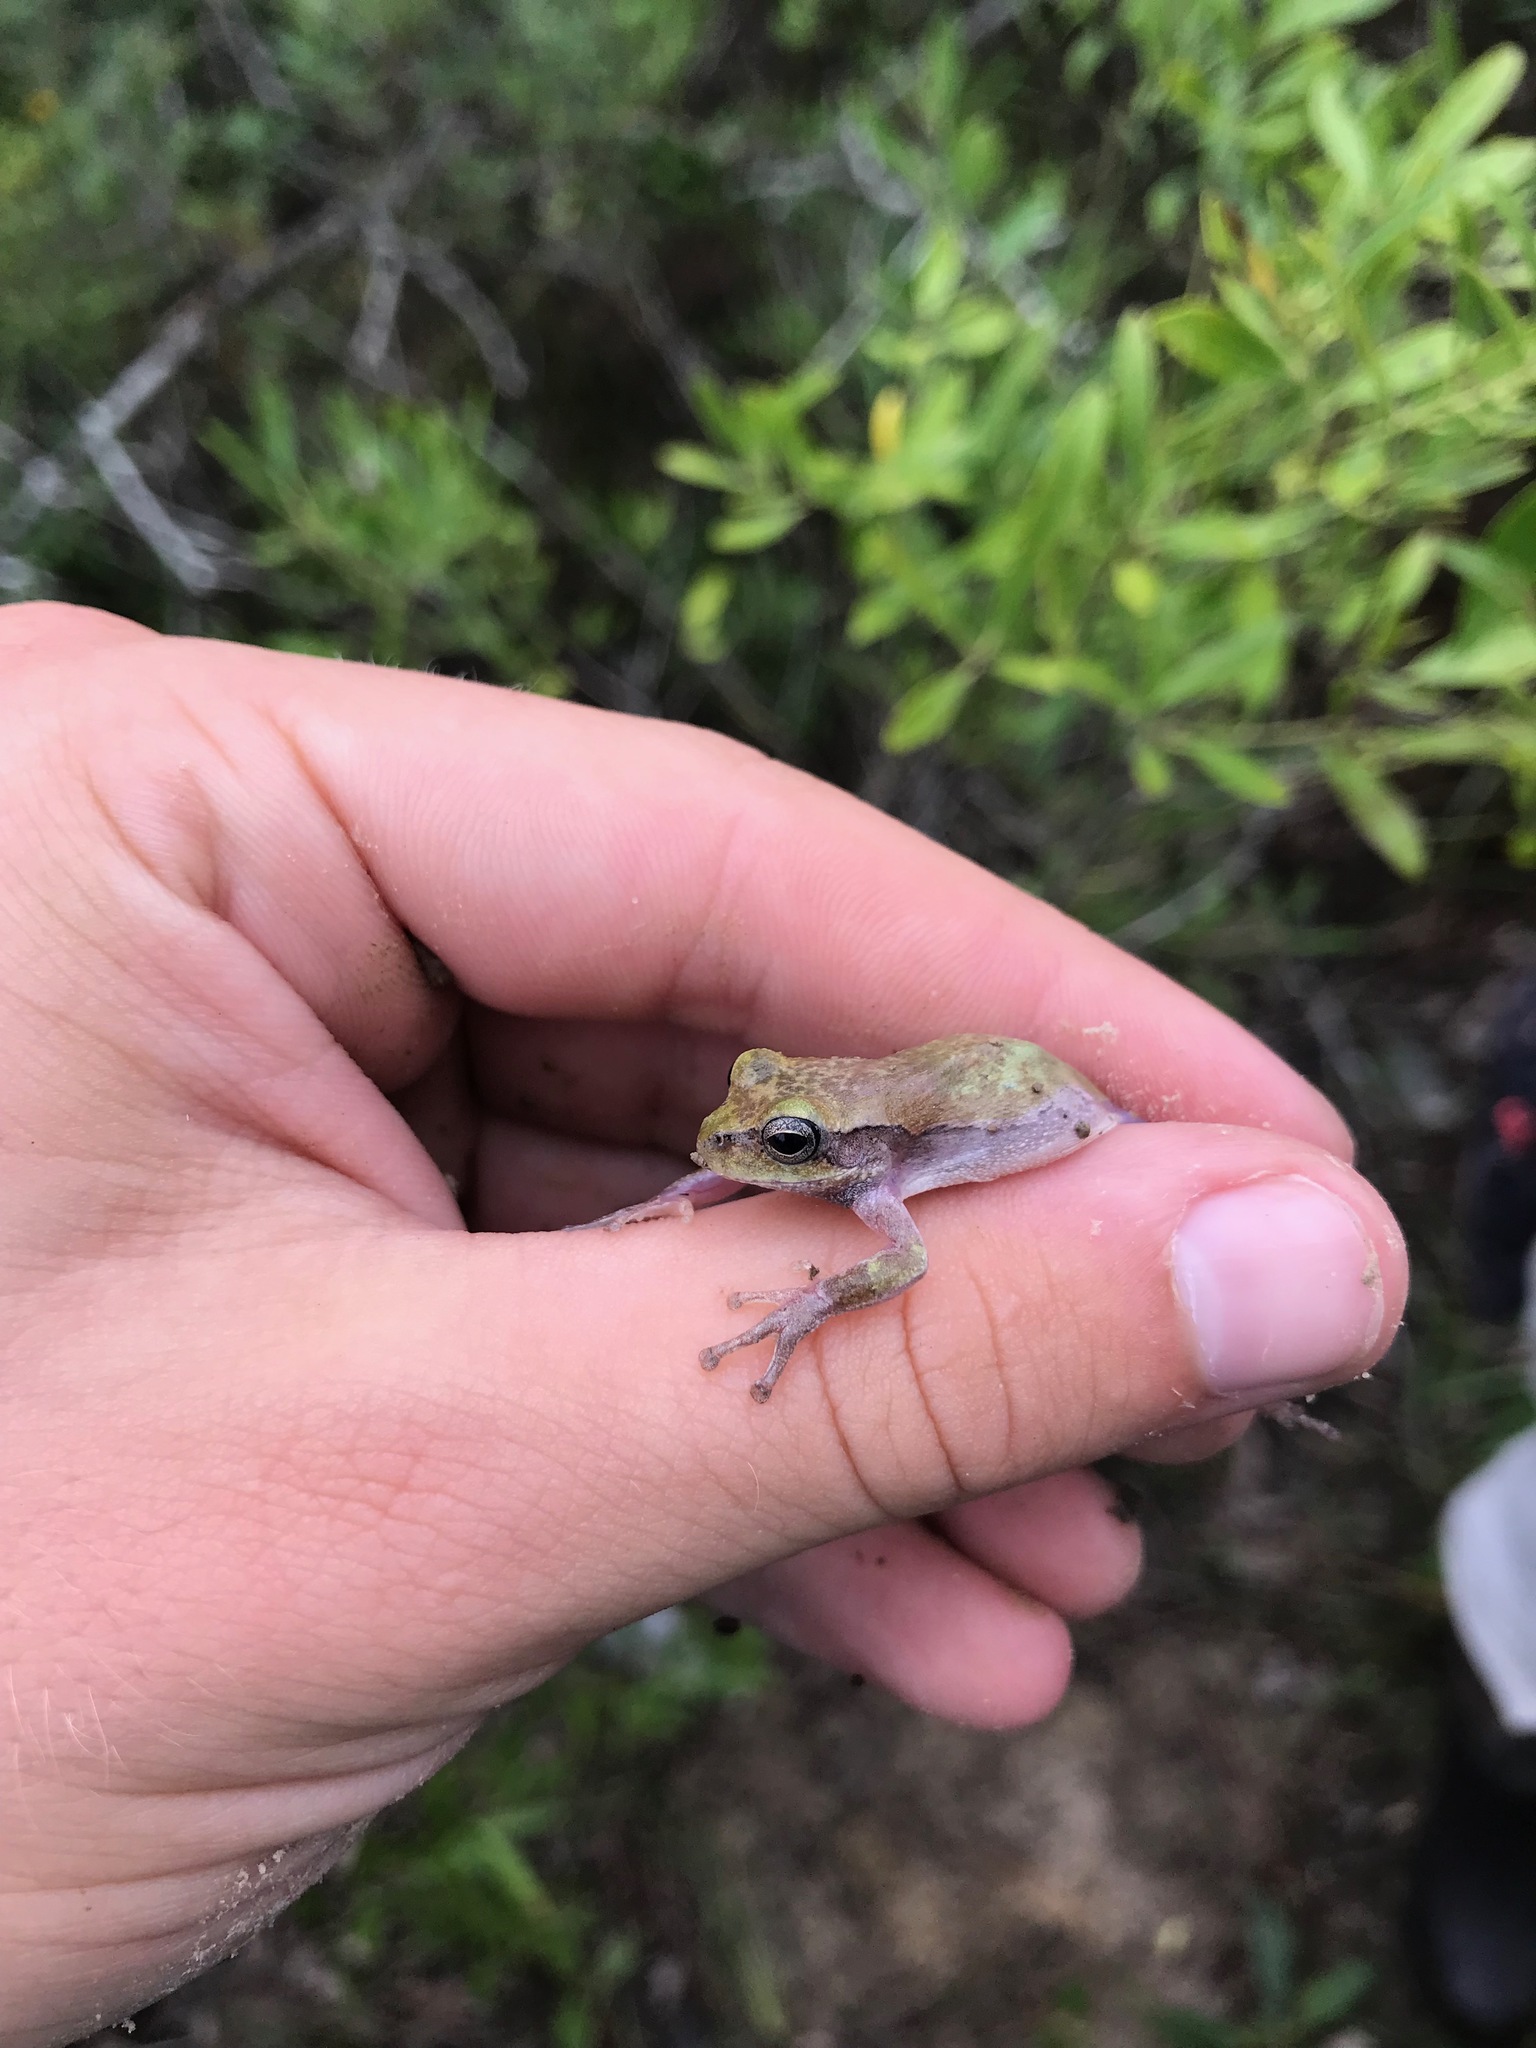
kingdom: Animalia
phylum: Chordata
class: Amphibia
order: Anura
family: Hylidae
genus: Hyla
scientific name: Hyla femoralis
